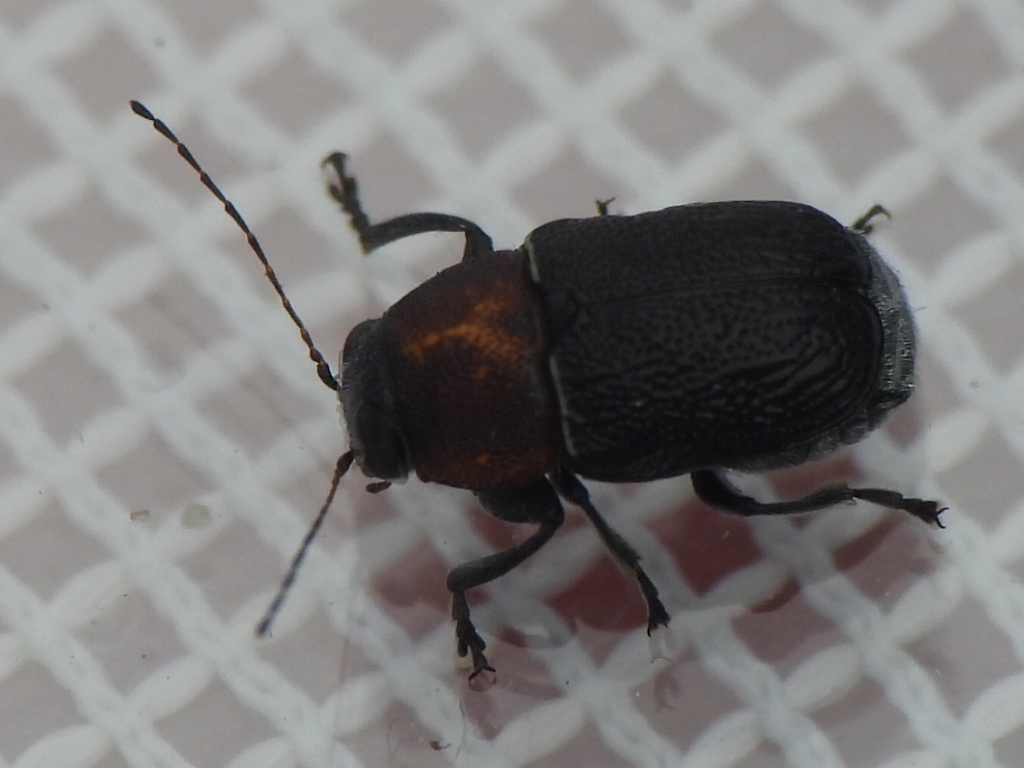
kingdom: Animalia
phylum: Arthropoda
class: Insecta
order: Coleoptera
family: Chrysomelidae
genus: Pachybrachis
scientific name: Pachybrachis luridus
